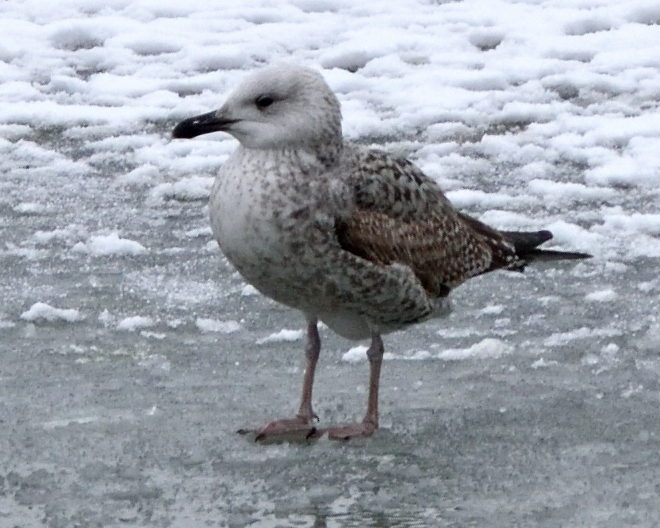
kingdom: Animalia
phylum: Chordata
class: Aves
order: Charadriiformes
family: Laridae
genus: Larus
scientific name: Larus argentatus
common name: Herring gull
